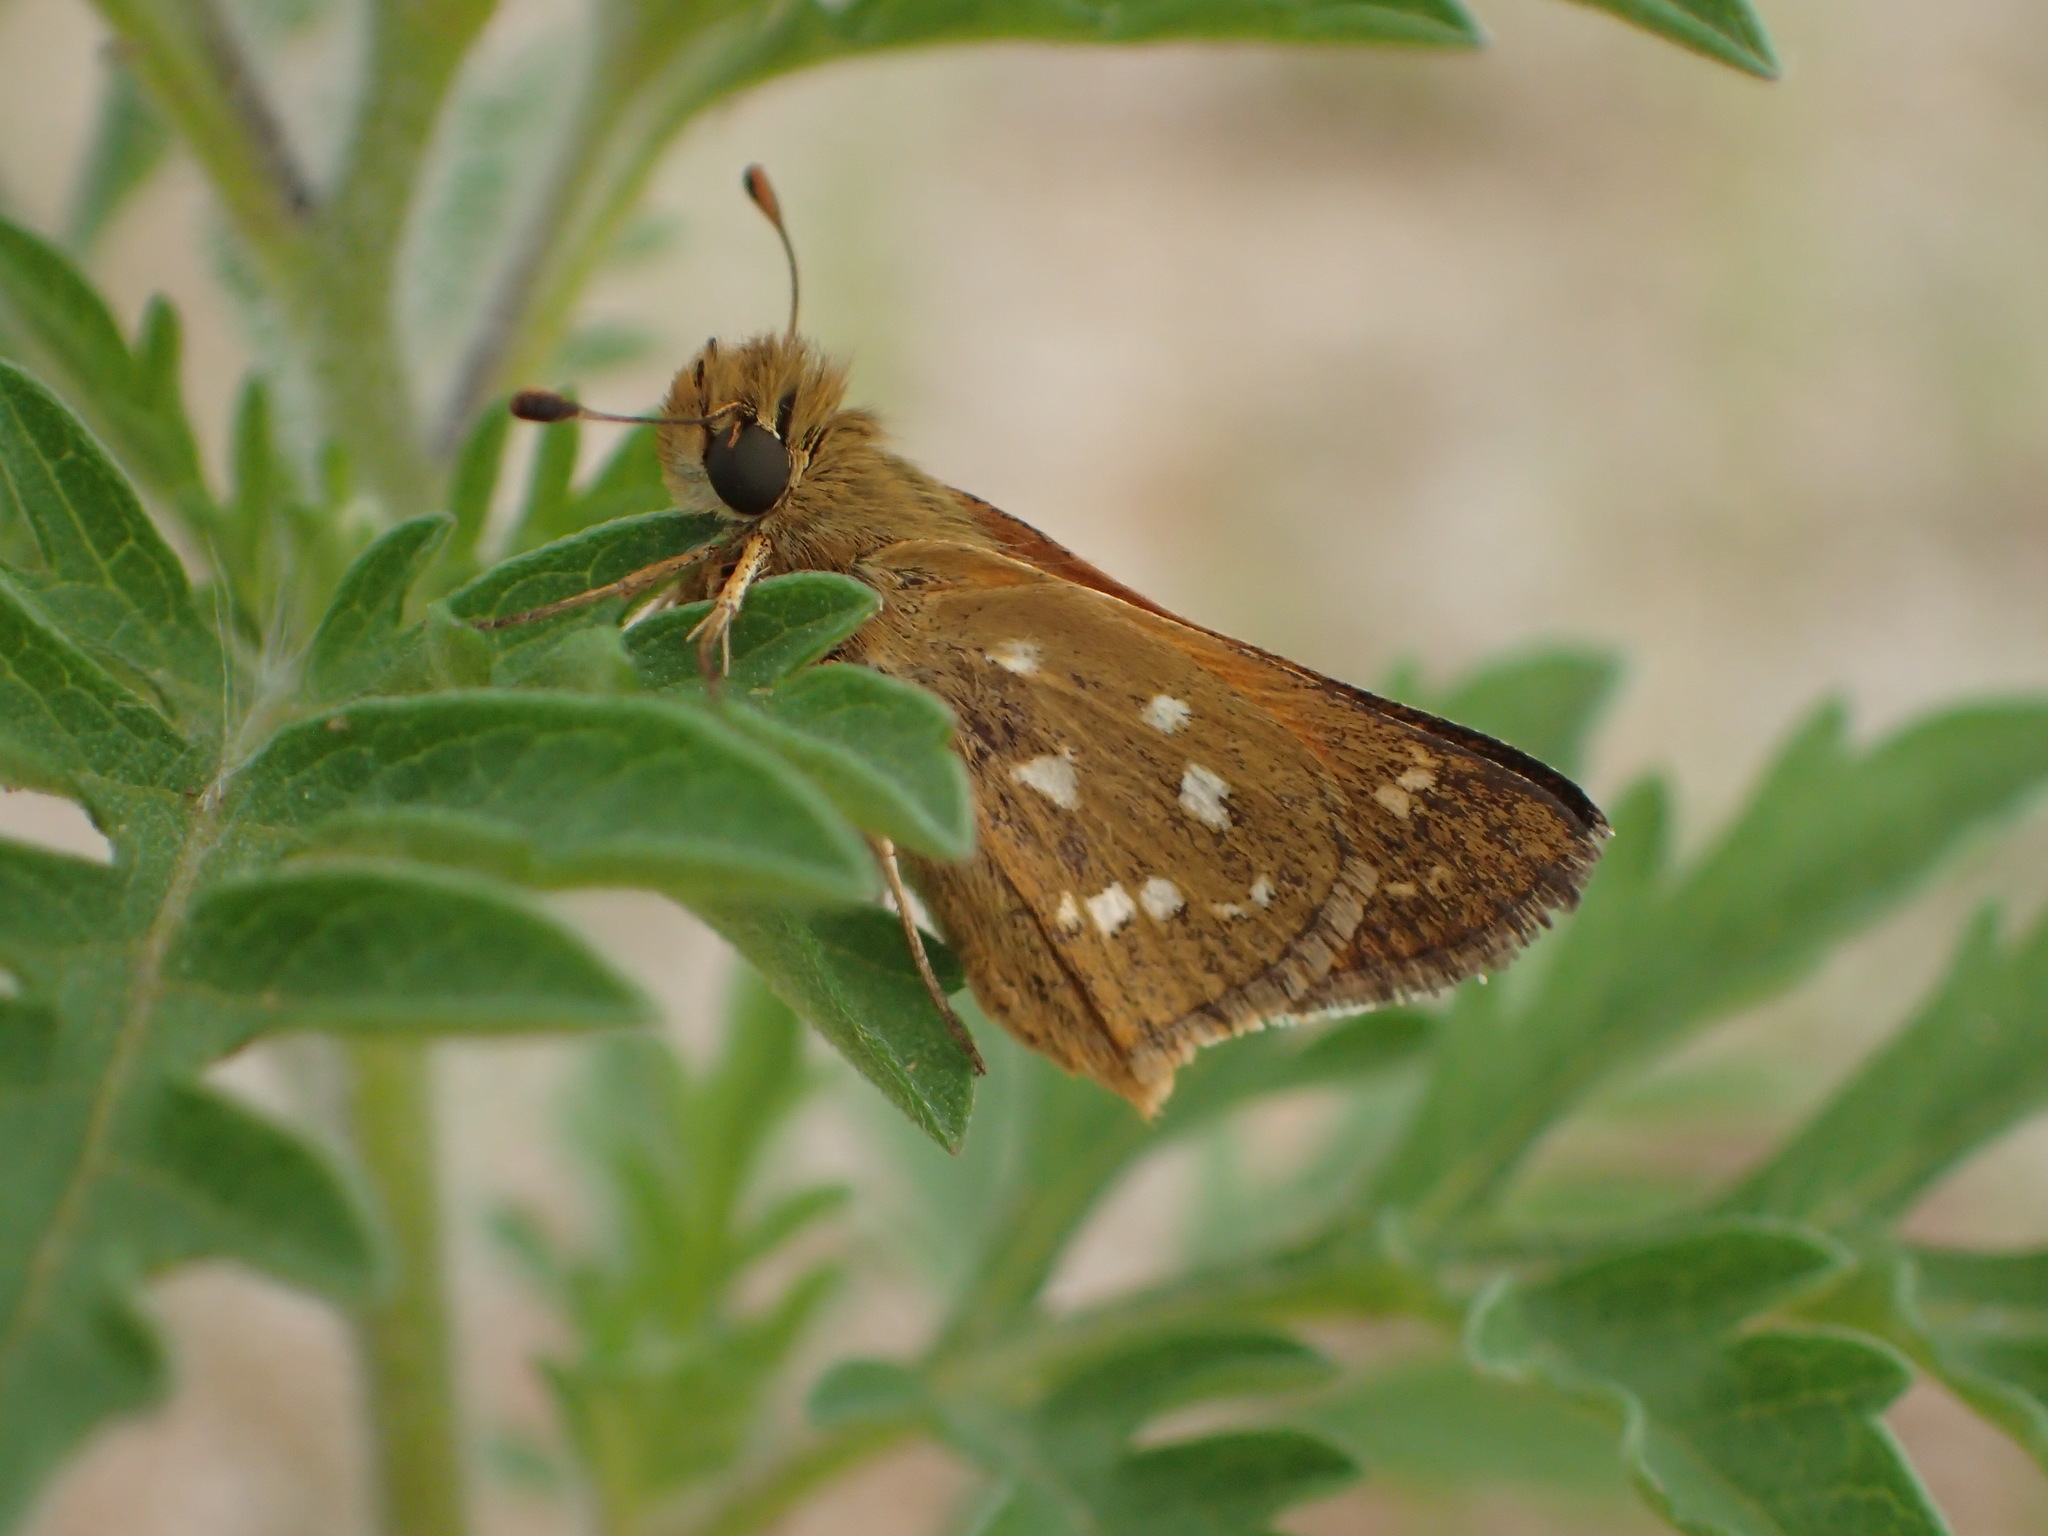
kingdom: Animalia
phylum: Arthropoda
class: Insecta
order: Lepidoptera
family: Hesperiidae
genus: Hesperia
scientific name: Hesperia comma
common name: Common branded skipper
